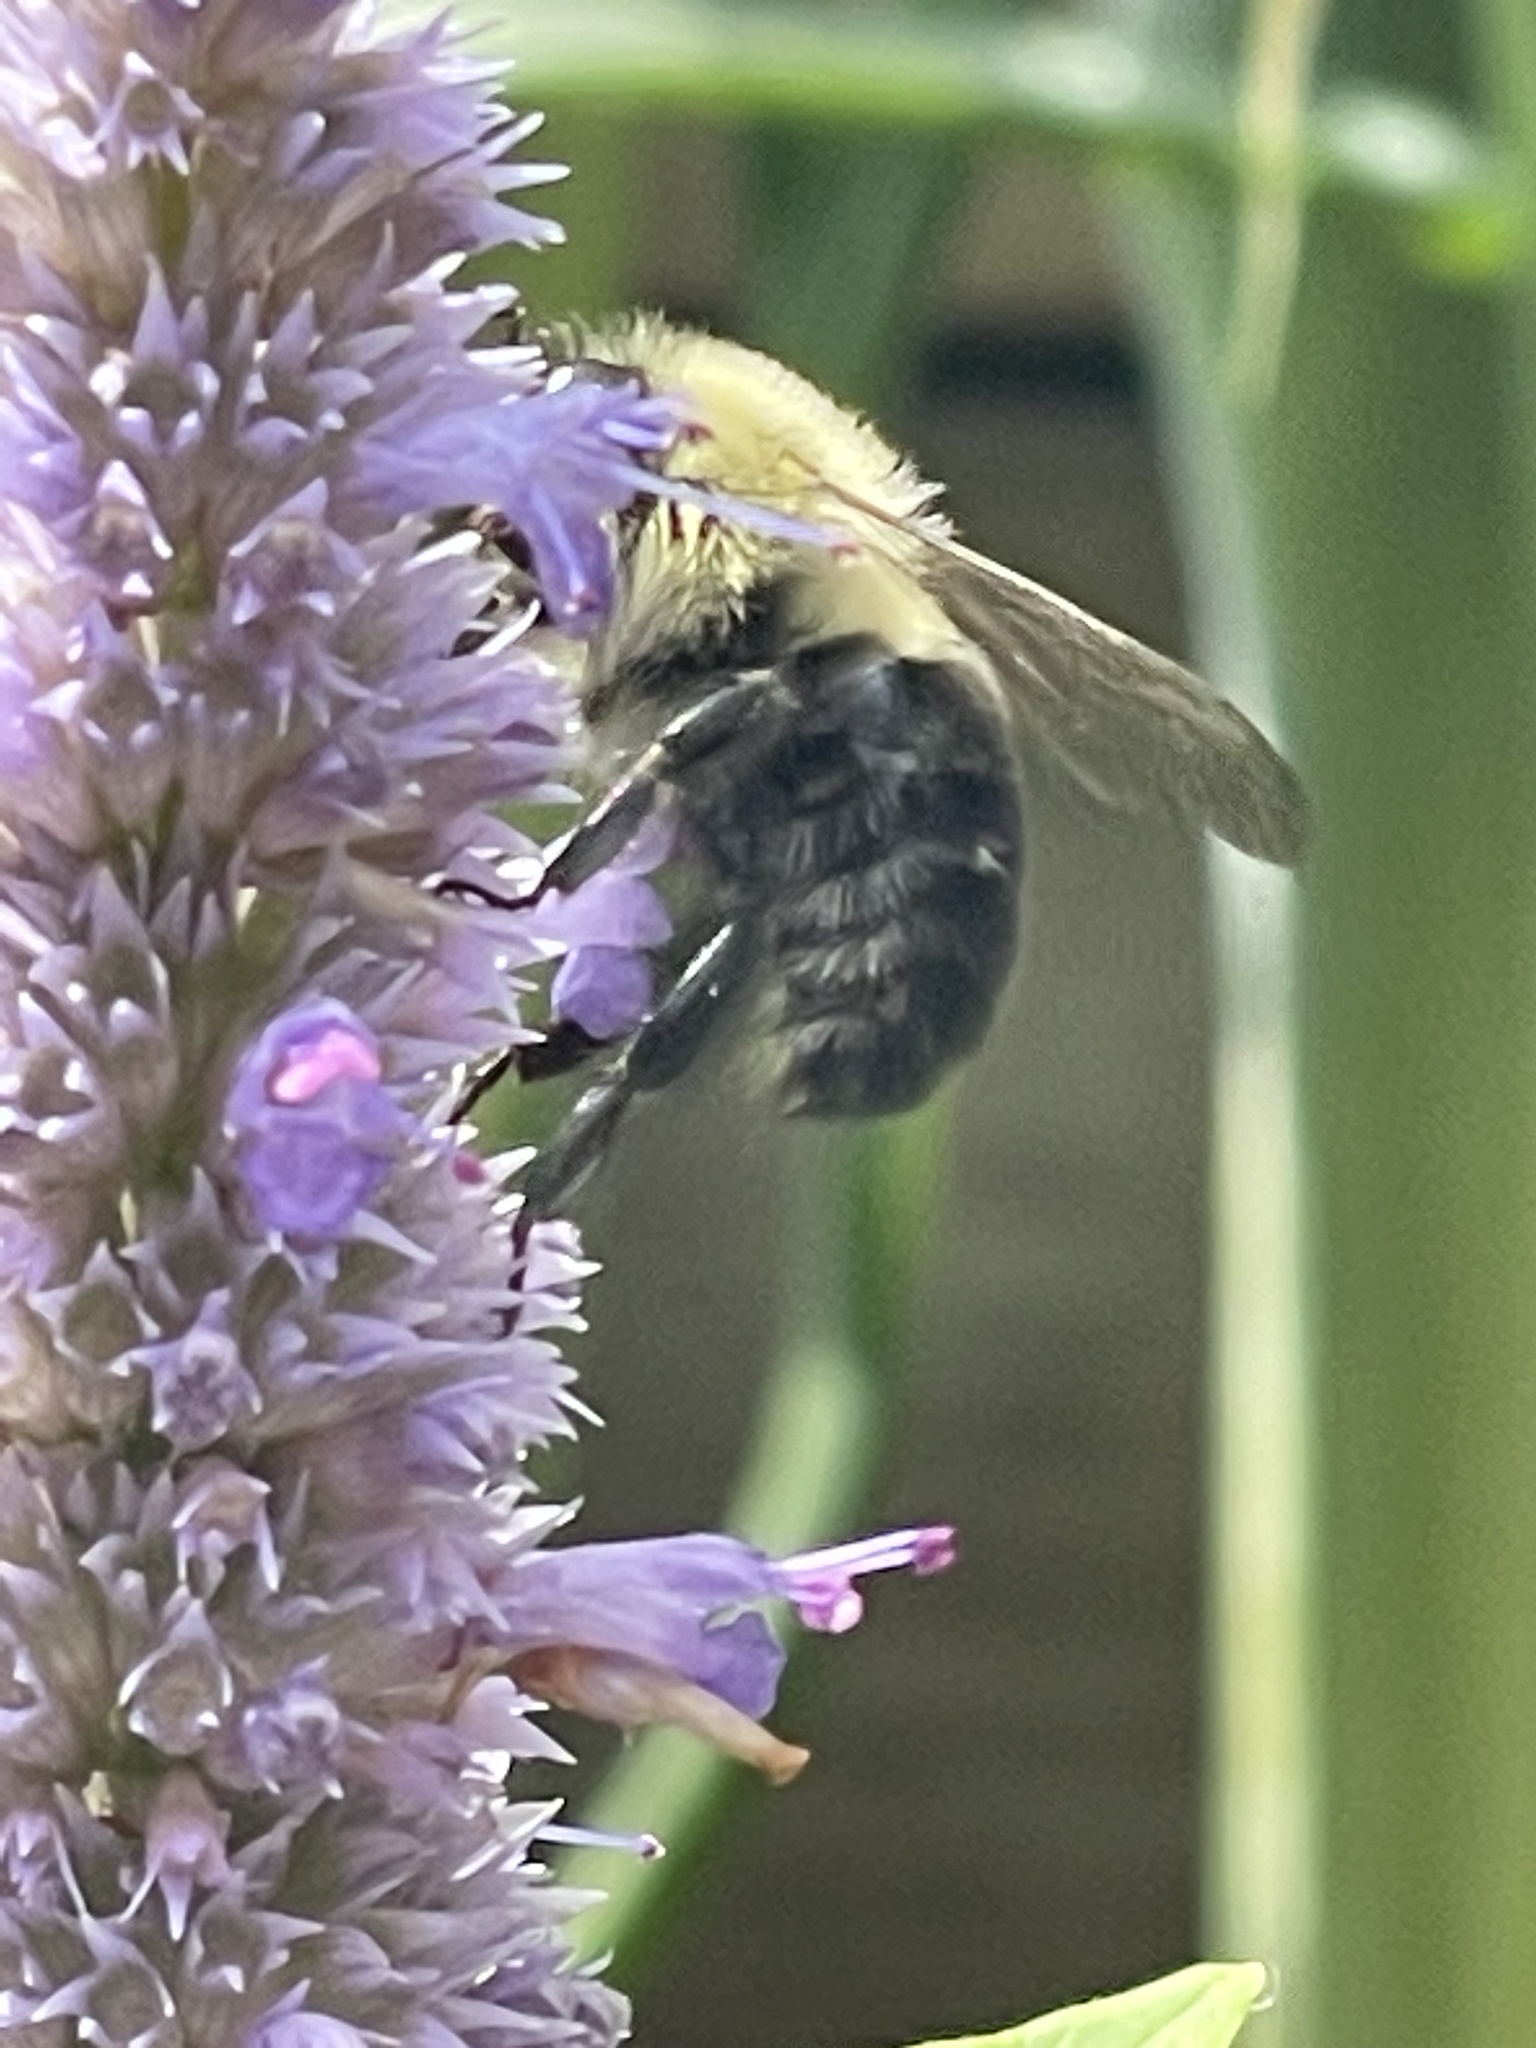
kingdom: Animalia
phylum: Arthropoda
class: Insecta
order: Hymenoptera
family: Apidae
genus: Bombus
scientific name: Bombus impatiens
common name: Common eastern bumble bee
